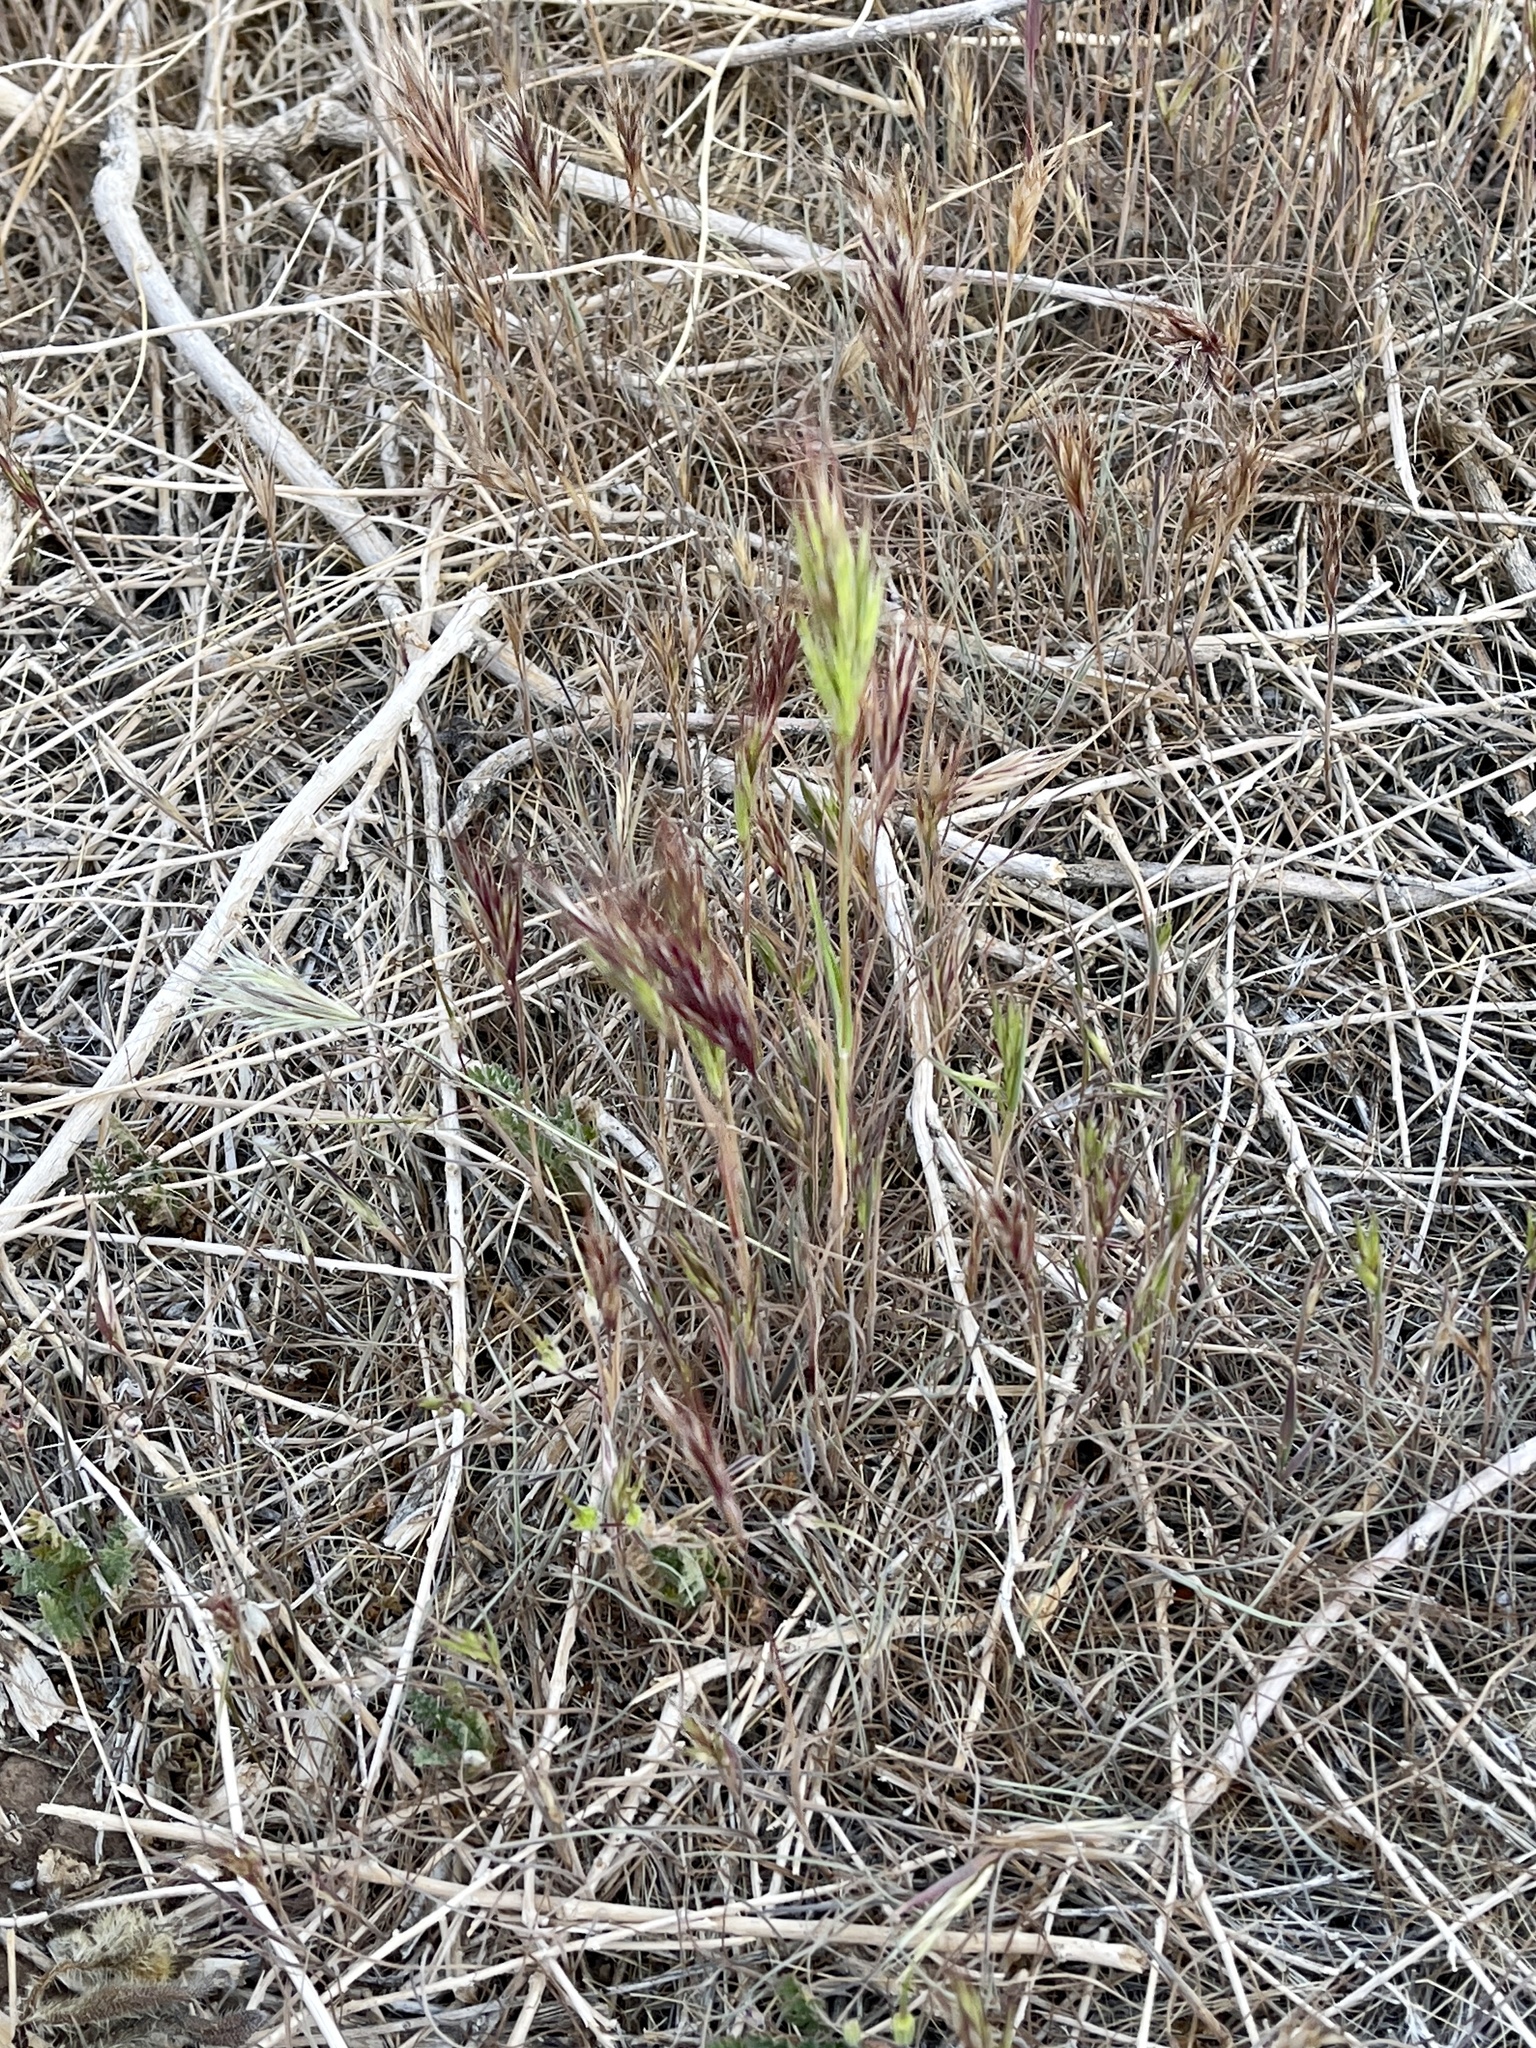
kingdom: Plantae
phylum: Tracheophyta
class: Liliopsida
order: Poales
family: Poaceae
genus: Bromus
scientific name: Bromus rubens
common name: Red brome
